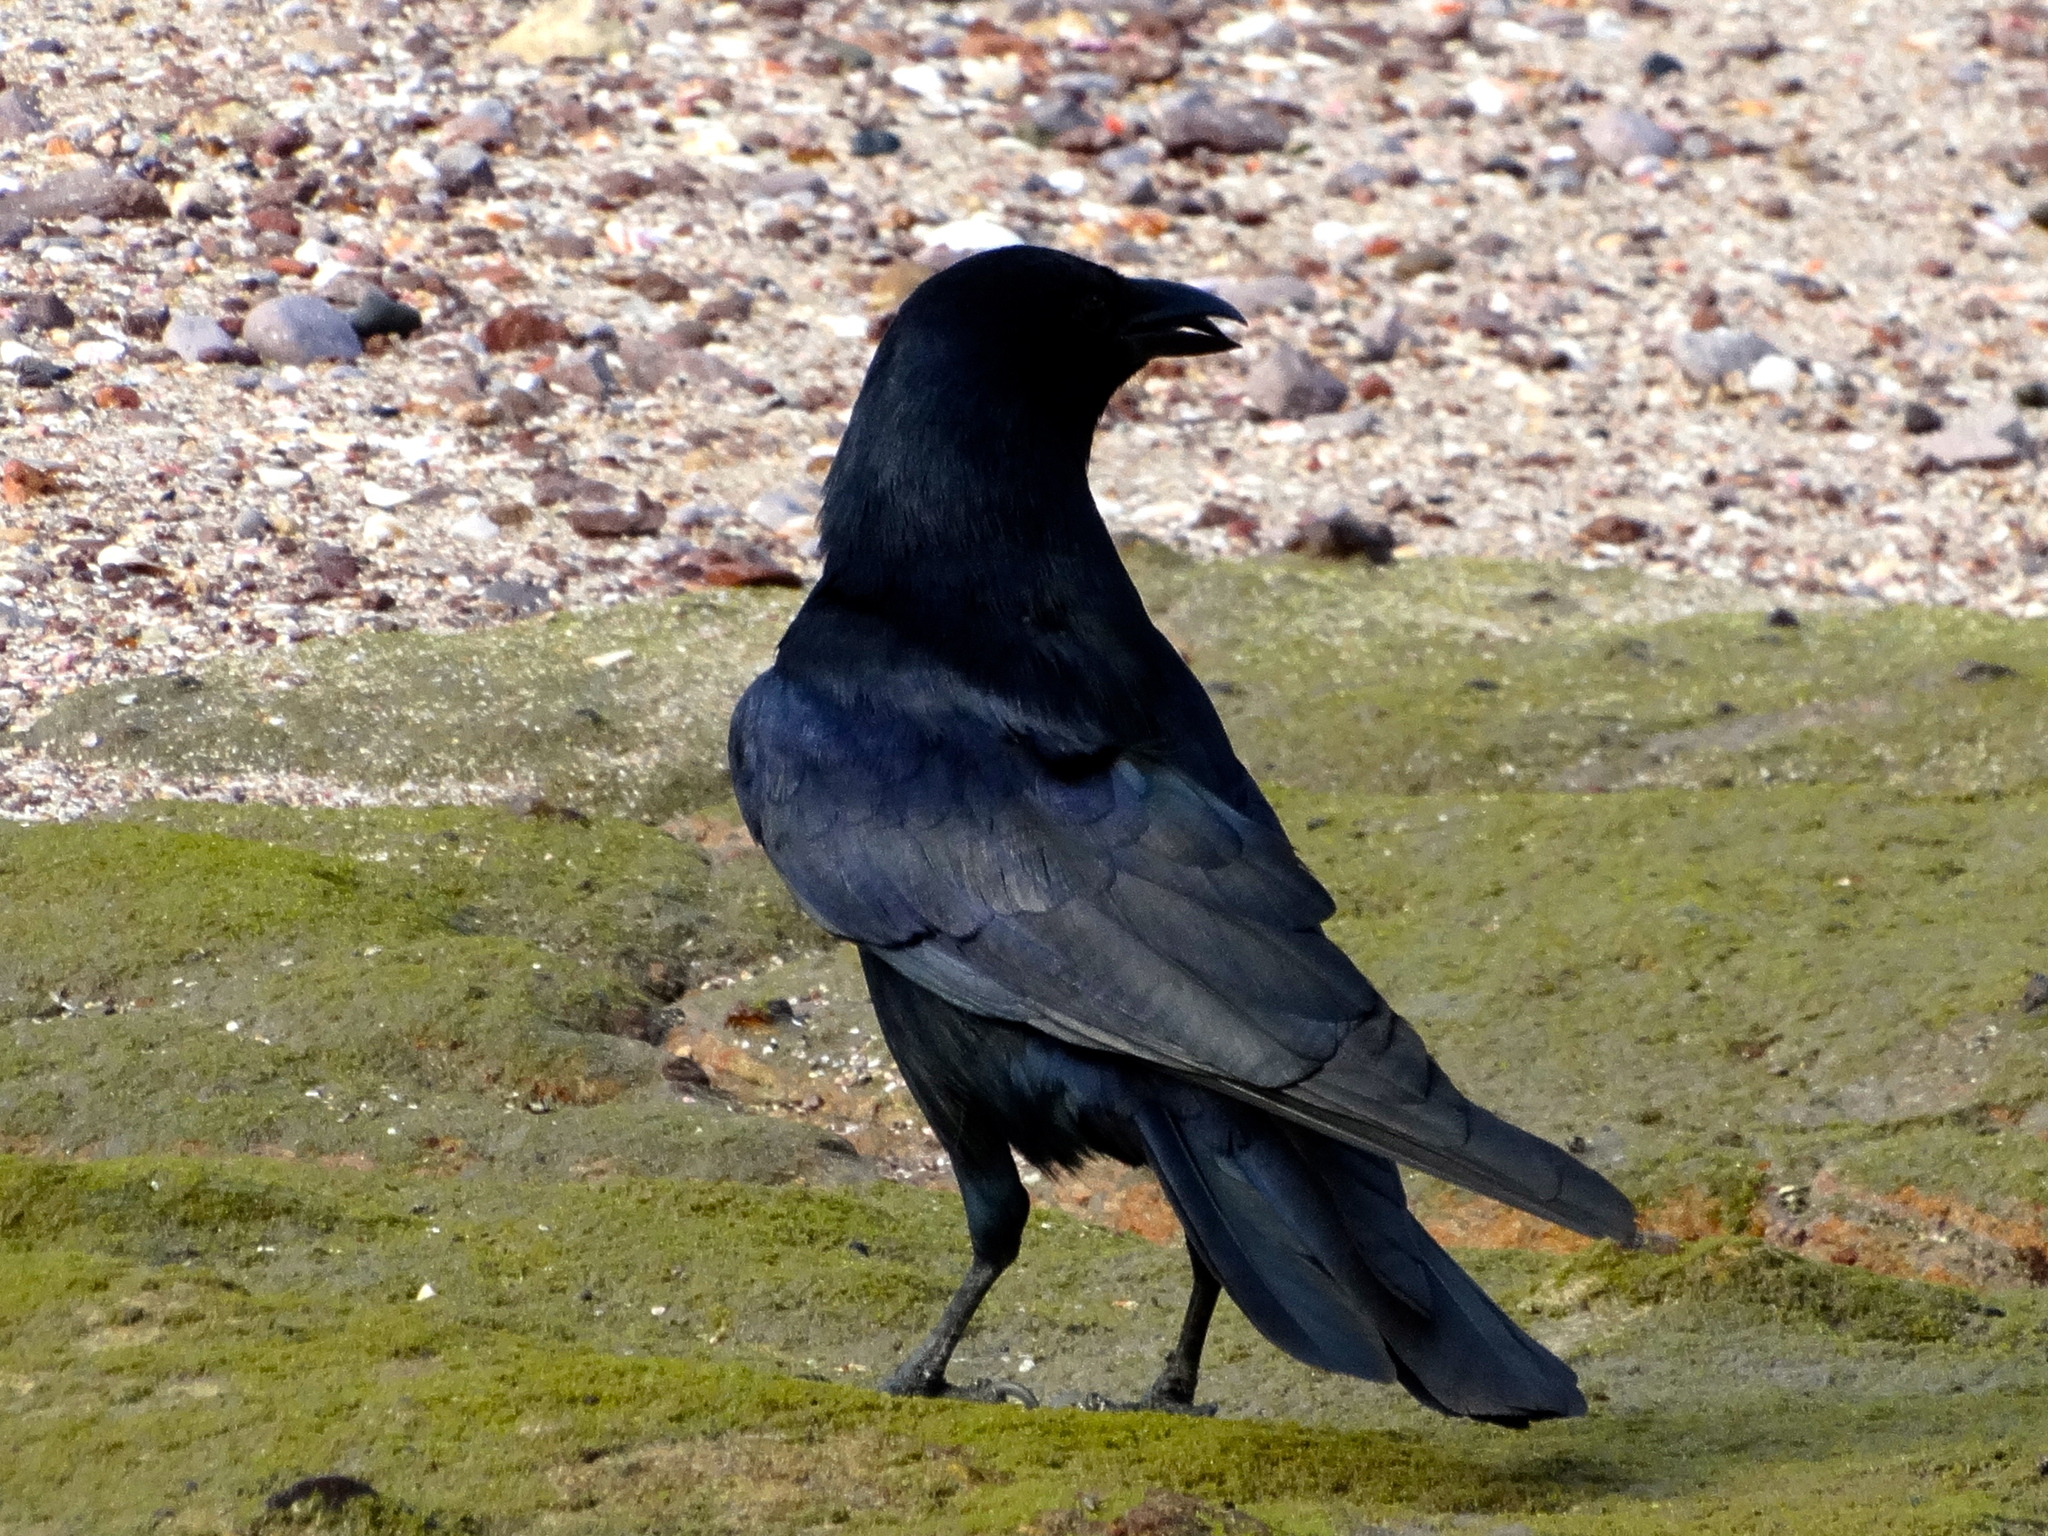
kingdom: Animalia
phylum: Chordata
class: Aves
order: Passeriformes
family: Corvidae
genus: Corvus
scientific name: Corvus sinaloae
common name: Sinaloa crow
